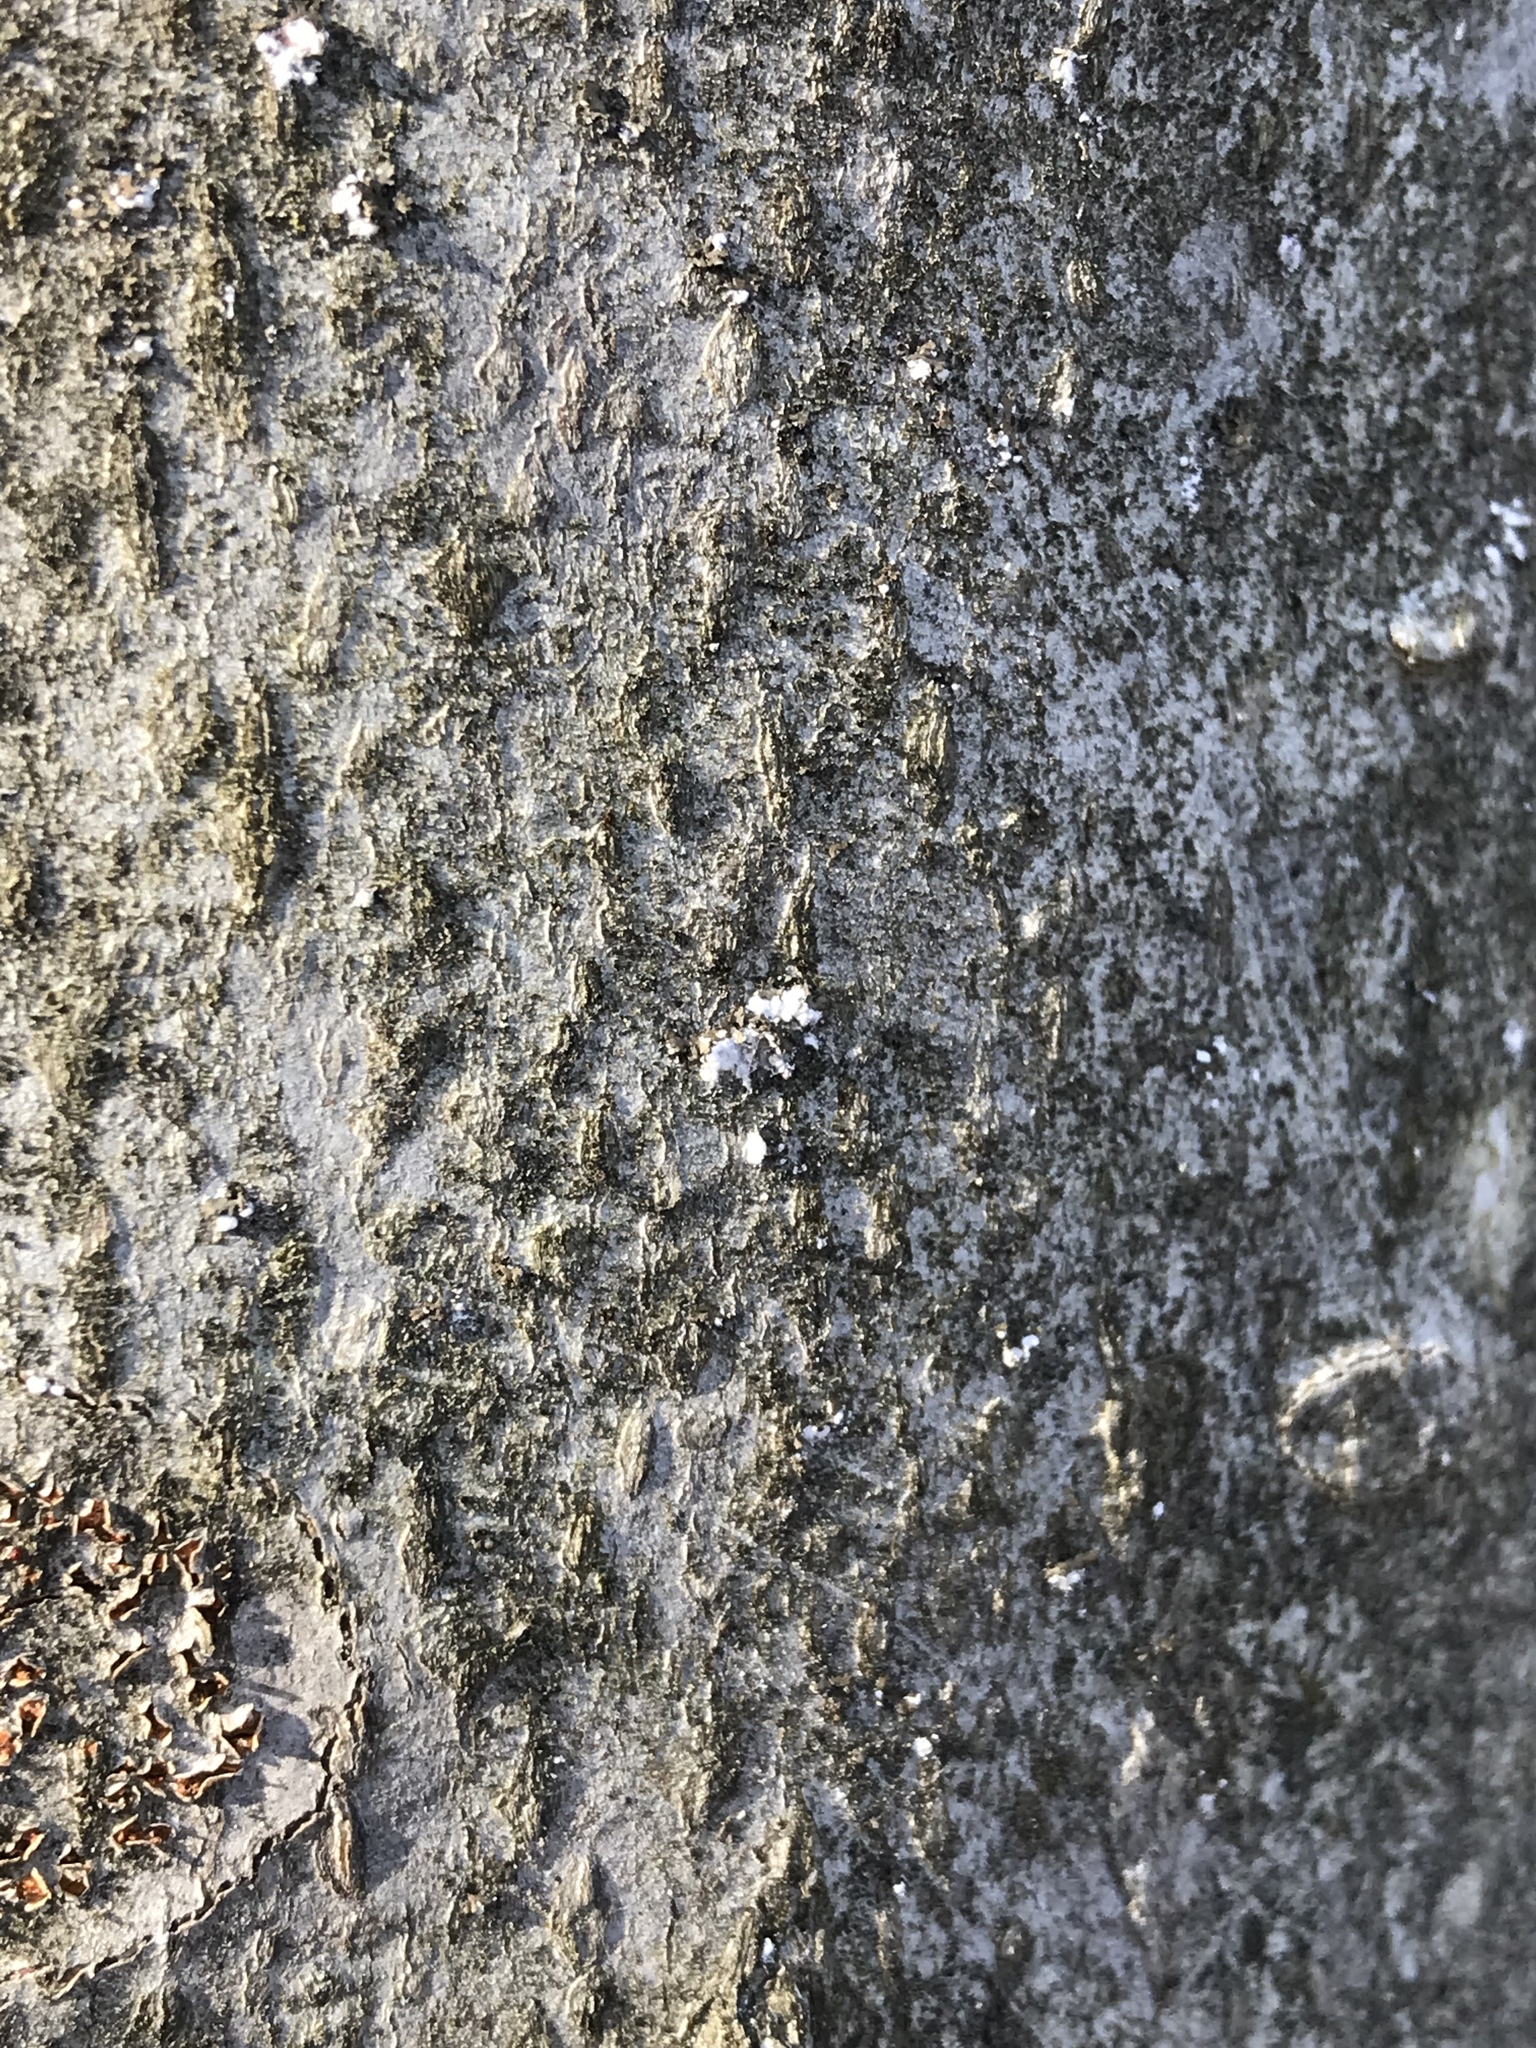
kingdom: Animalia
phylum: Arthropoda
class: Insecta
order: Hemiptera
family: Eriococcidae
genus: Cryptococcus
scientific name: Cryptococcus fagisuga
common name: Beech scale
